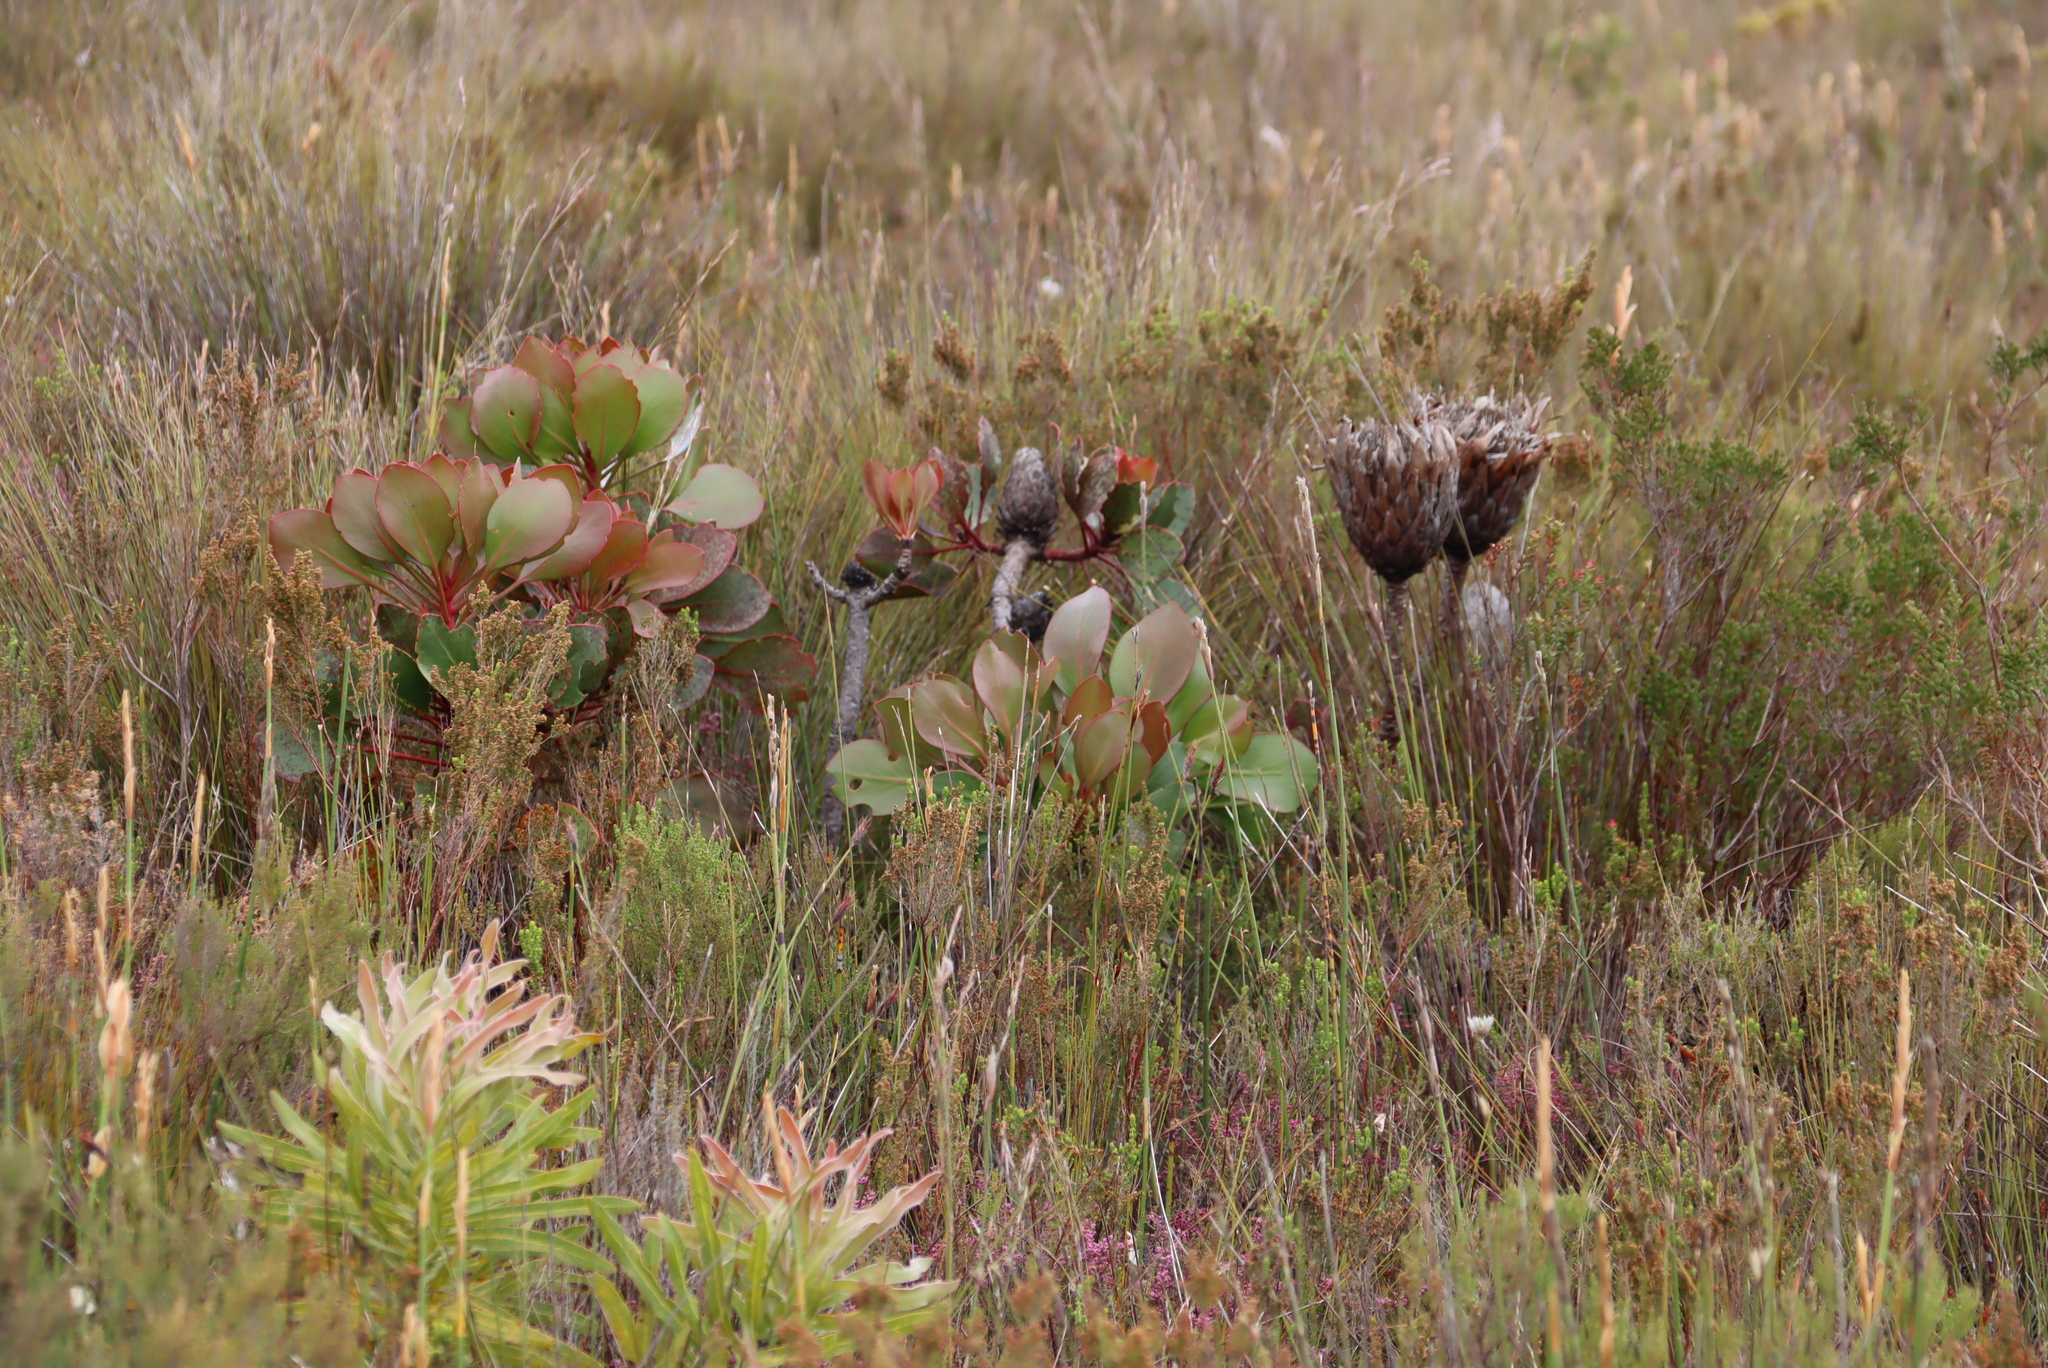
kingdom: Plantae
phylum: Tracheophyta
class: Magnoliopsida
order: Proteales
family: Proteaceae
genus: Protea
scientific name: Protea cynaroides
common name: King protea
